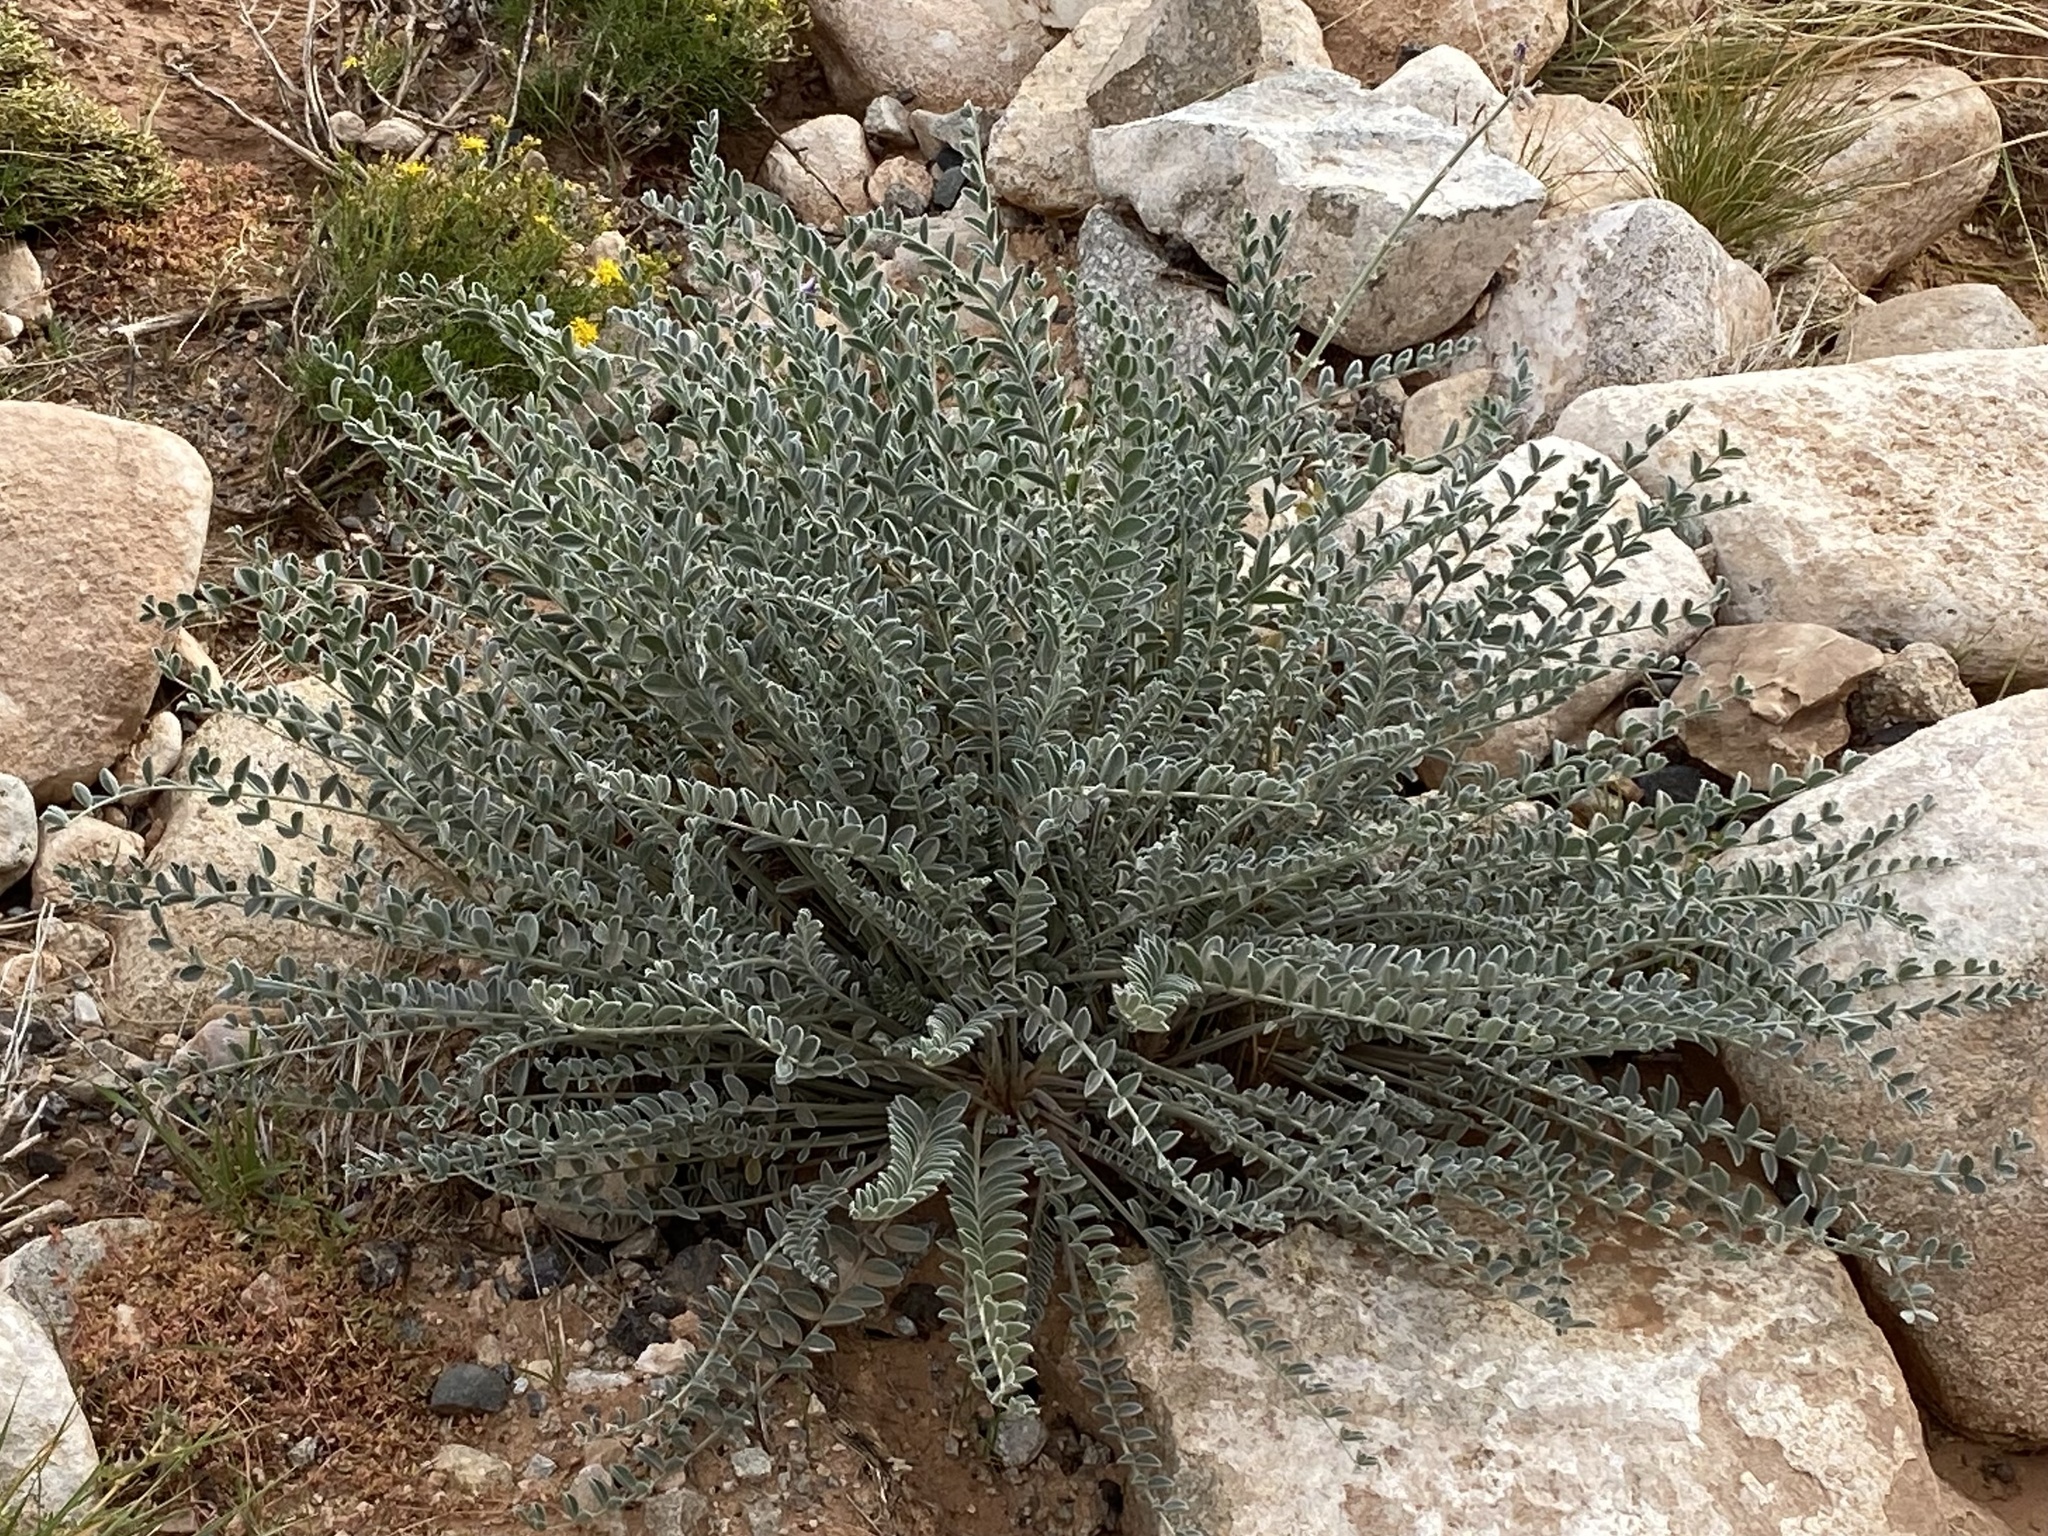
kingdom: Plantae
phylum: Tracheophyta
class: Magnoliopsida
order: Fabales
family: Fabaceae
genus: Astragalus
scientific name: Astragalus mollissimus
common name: Woolly locoweed
